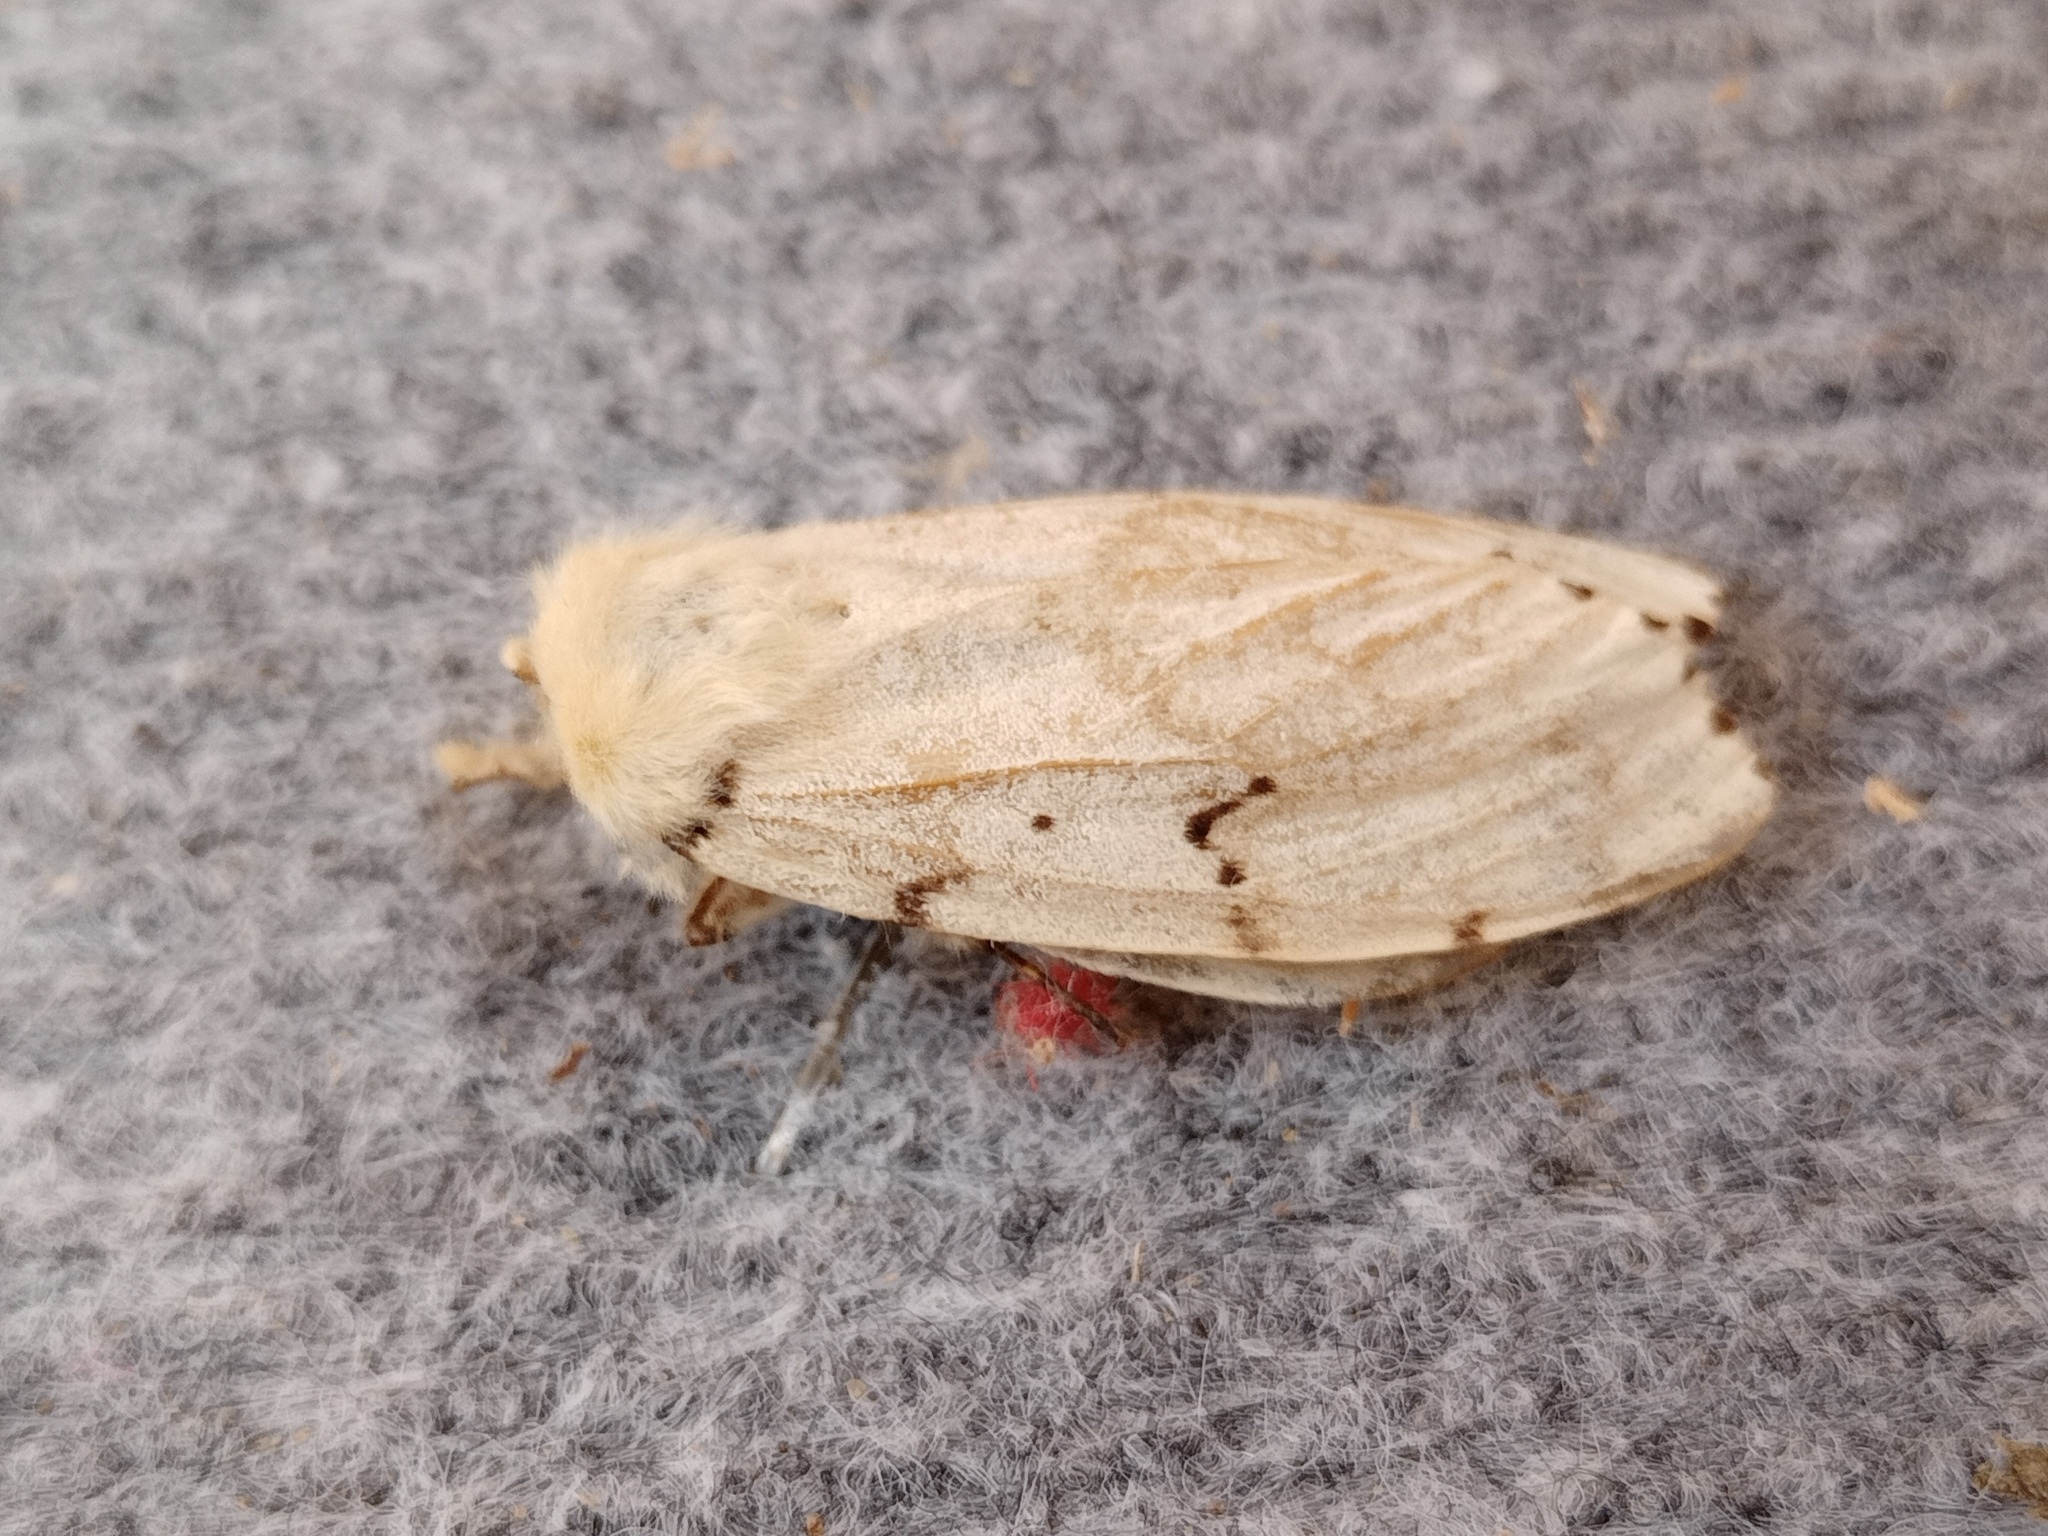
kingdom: Animalia
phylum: Arthropoda
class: Insecta
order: Lepidoptera
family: Erebidae
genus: Lymantria
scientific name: Lymantria dispar
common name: Gypsy moth
